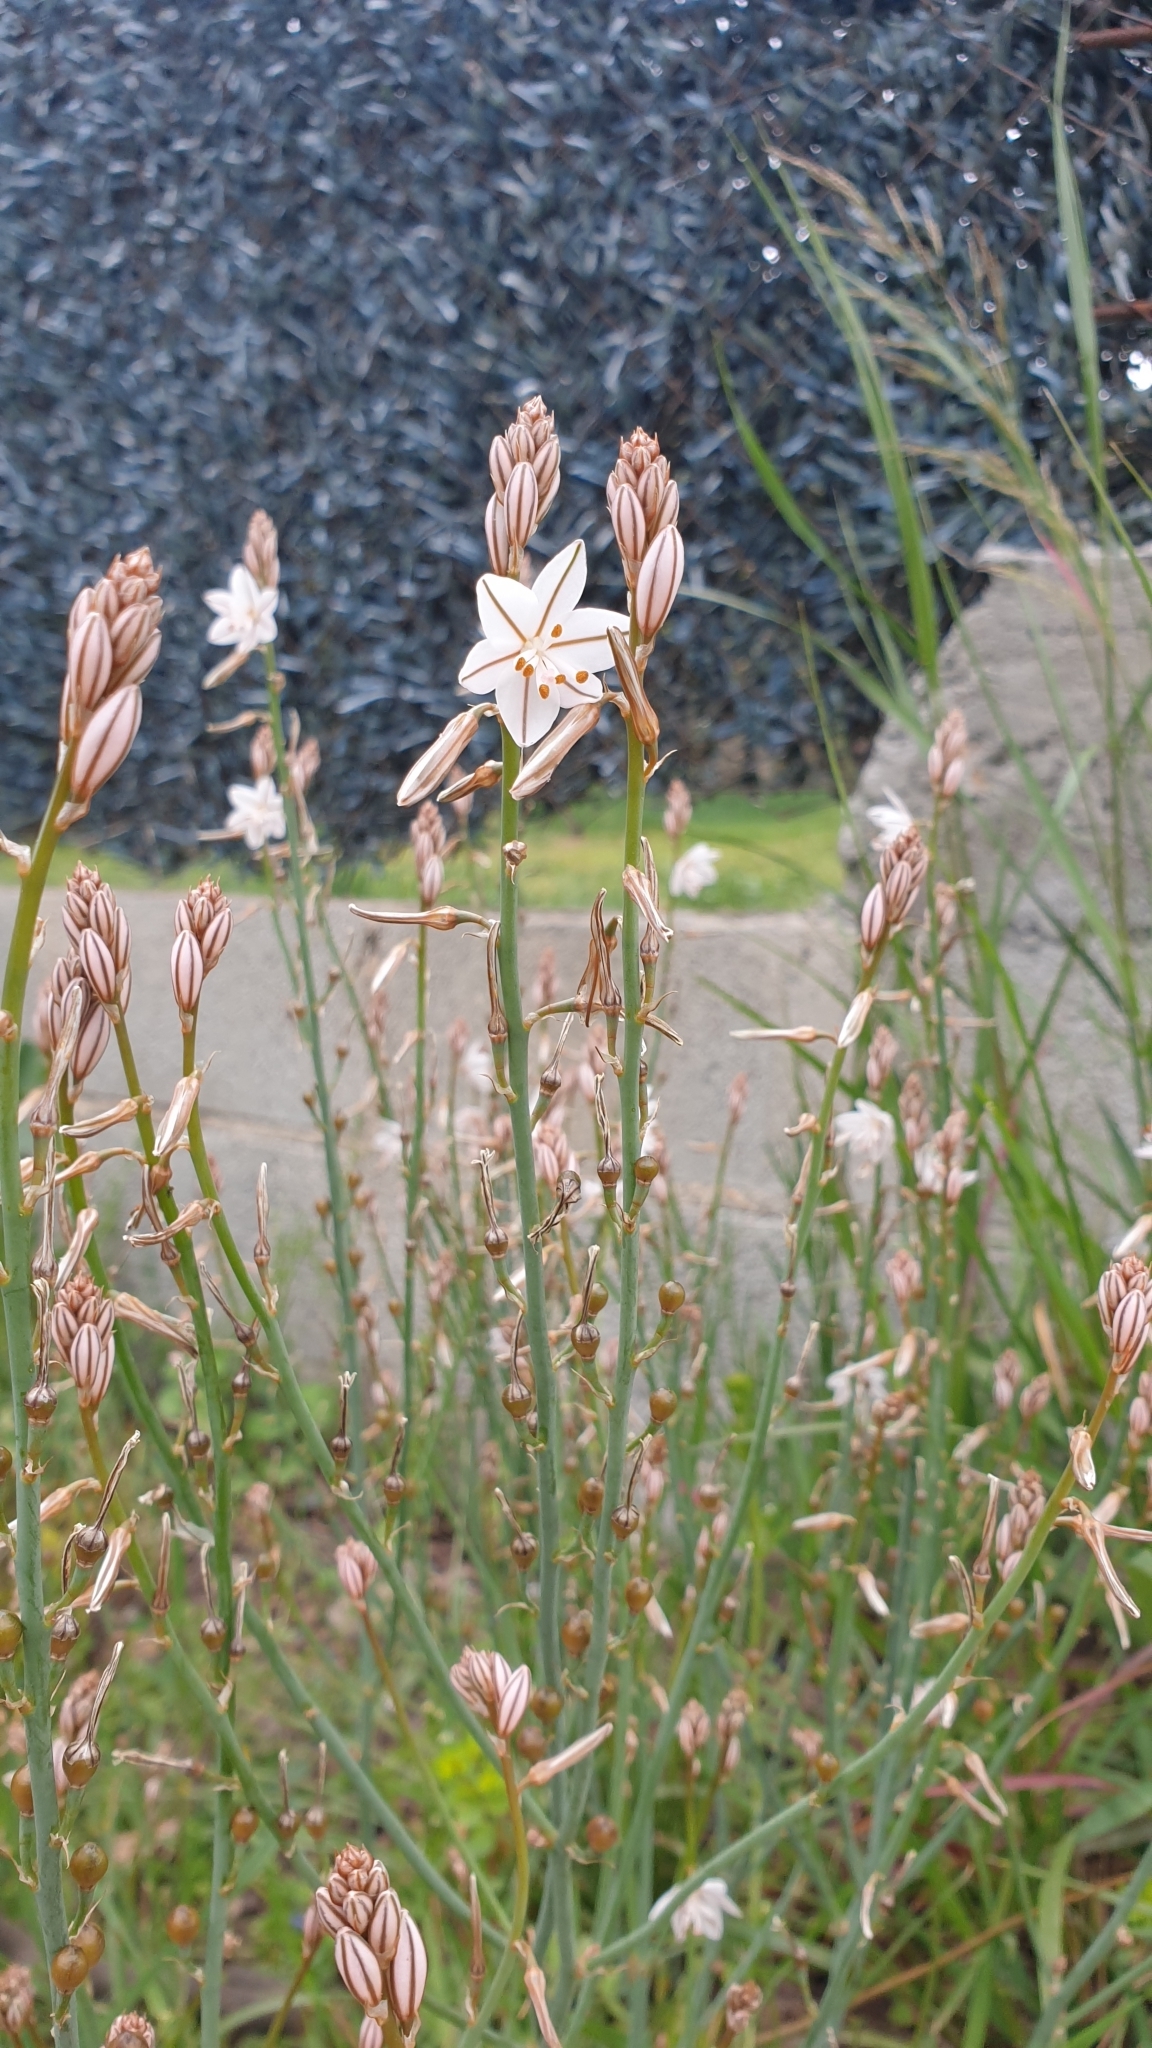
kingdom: Plantae
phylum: Tracheophyta
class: Liliopsida
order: Asparagales
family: Asphodelaceae
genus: Asphodelus
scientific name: Asphodelus fistulosus
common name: Onionweed
